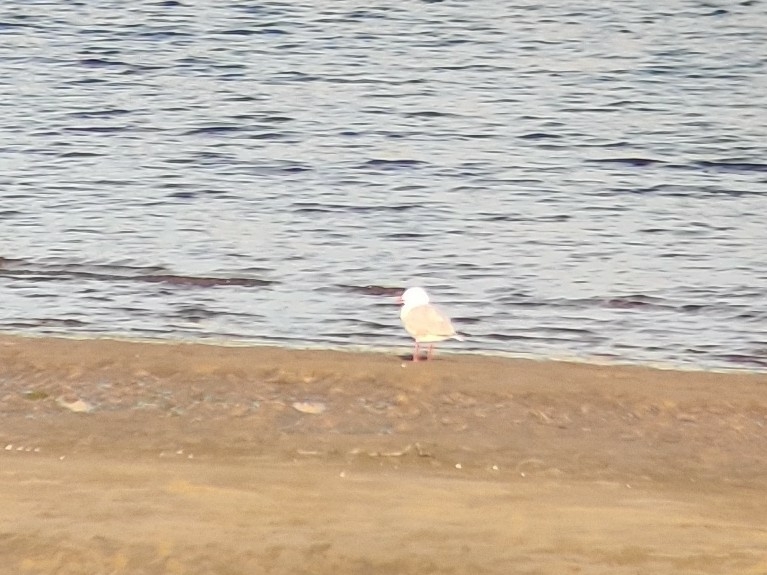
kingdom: Animalia
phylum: Chordata
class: Aves
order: Charadriiformes
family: Laridae
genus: Chroicocephalus
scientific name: Chroicocephalus novaehollandiae
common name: Silver gull
